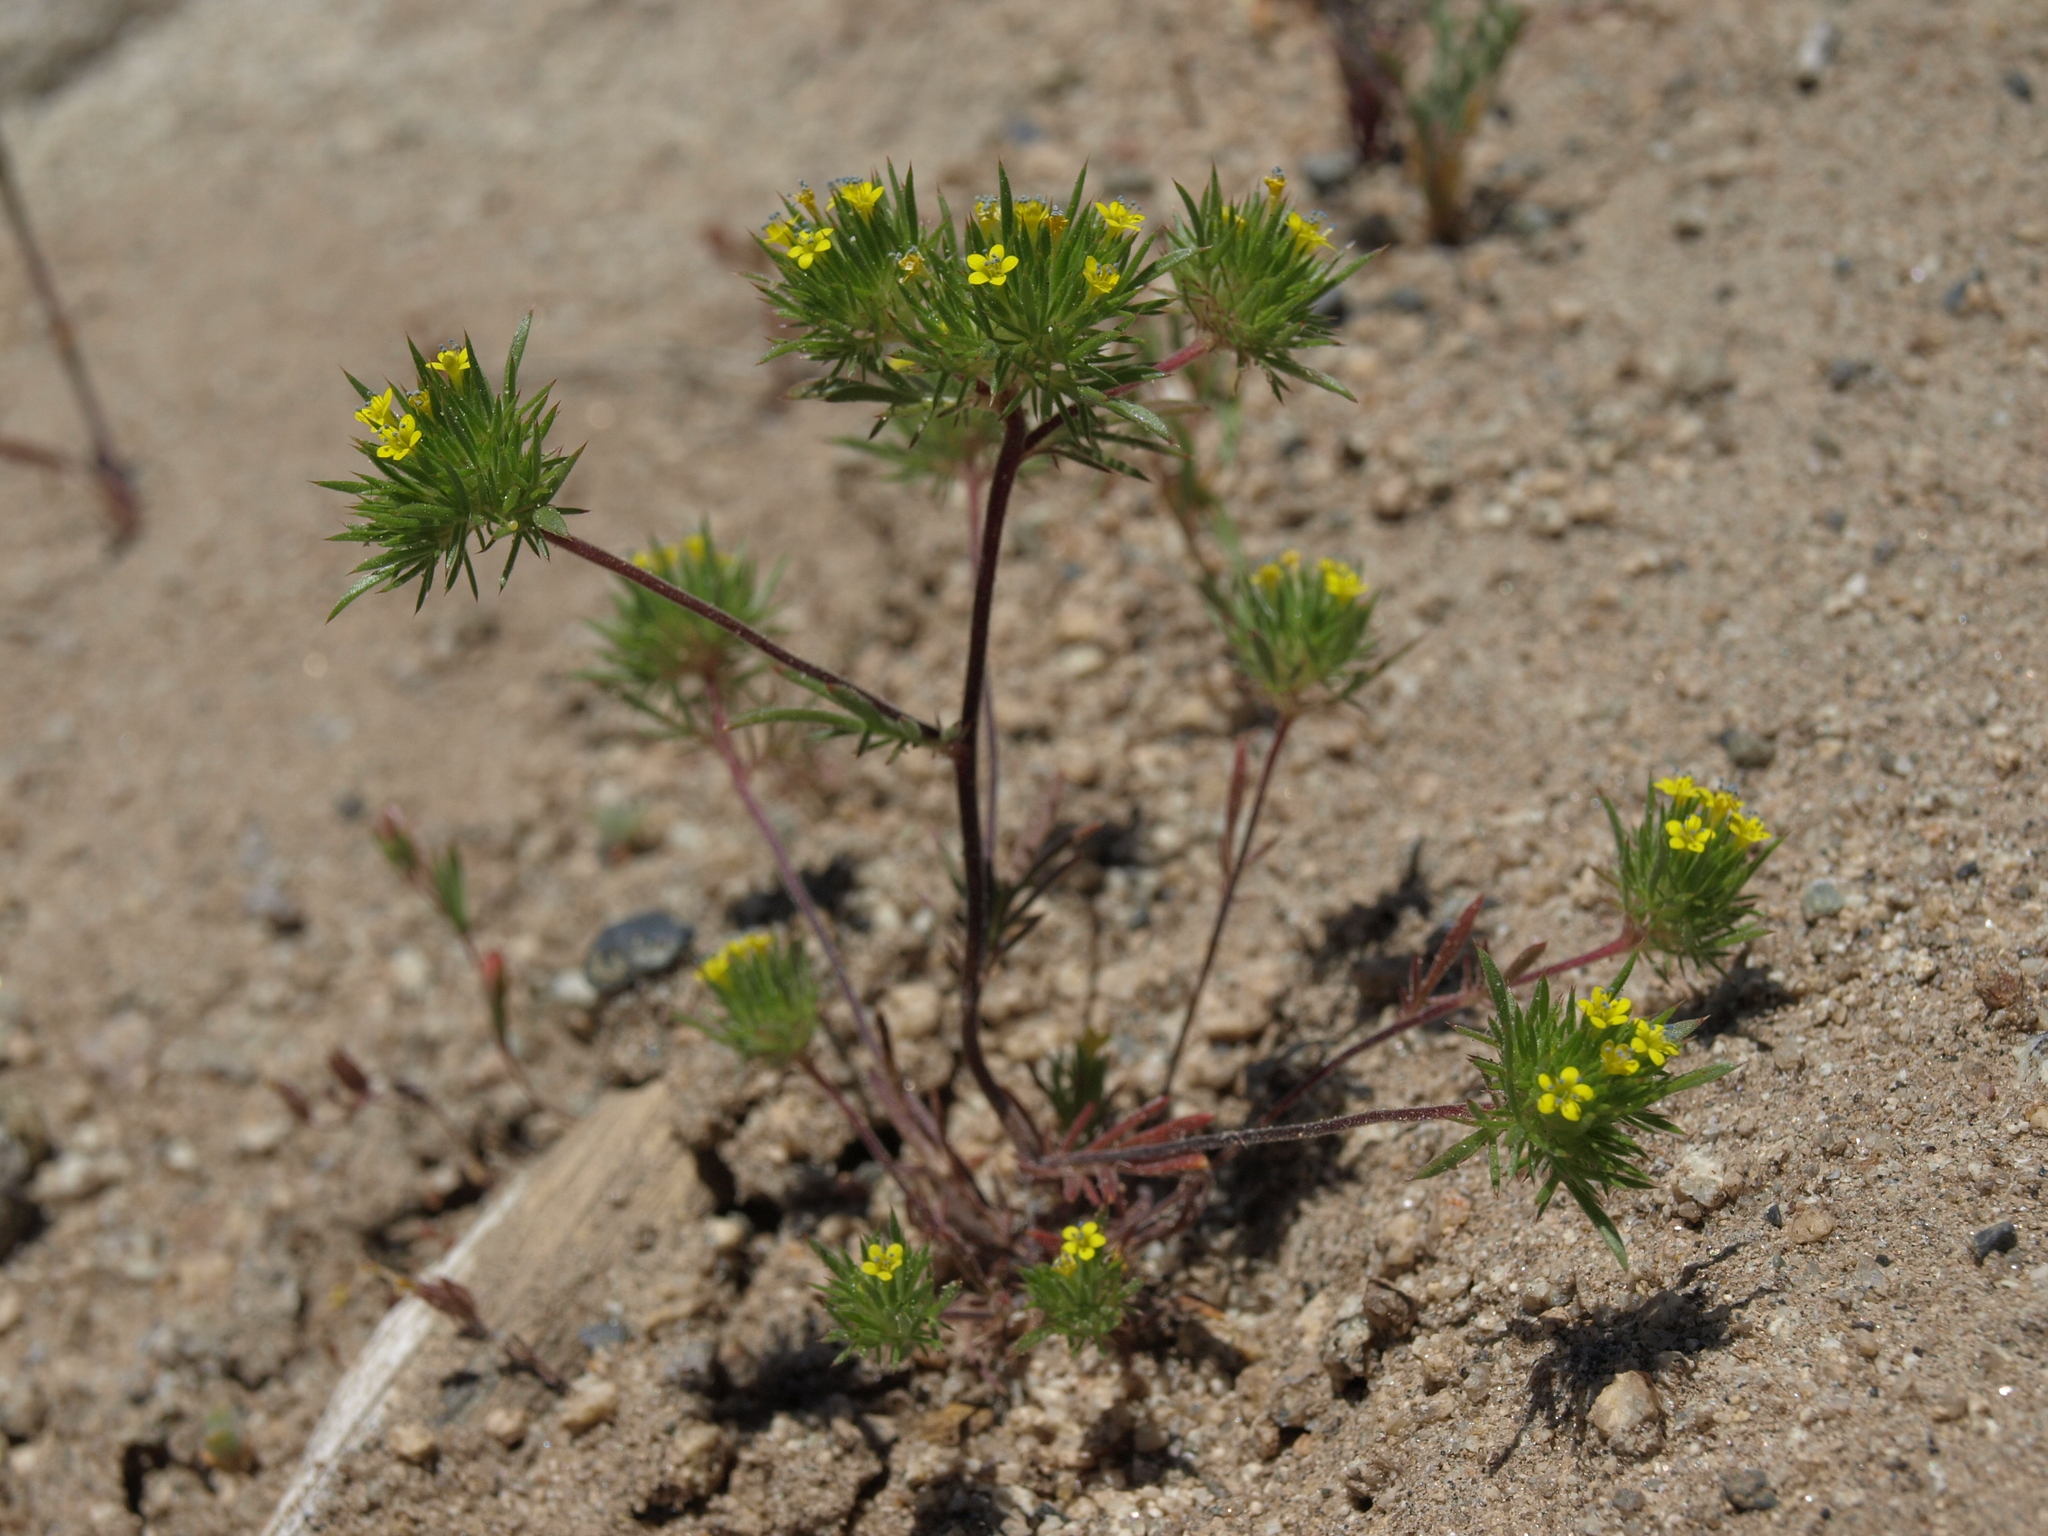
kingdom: Plantae
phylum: Tracheophyta
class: Magnoliopsida
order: Ericales
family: Polemoniaceae
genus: Navarretia
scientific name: Navarretia breweri
